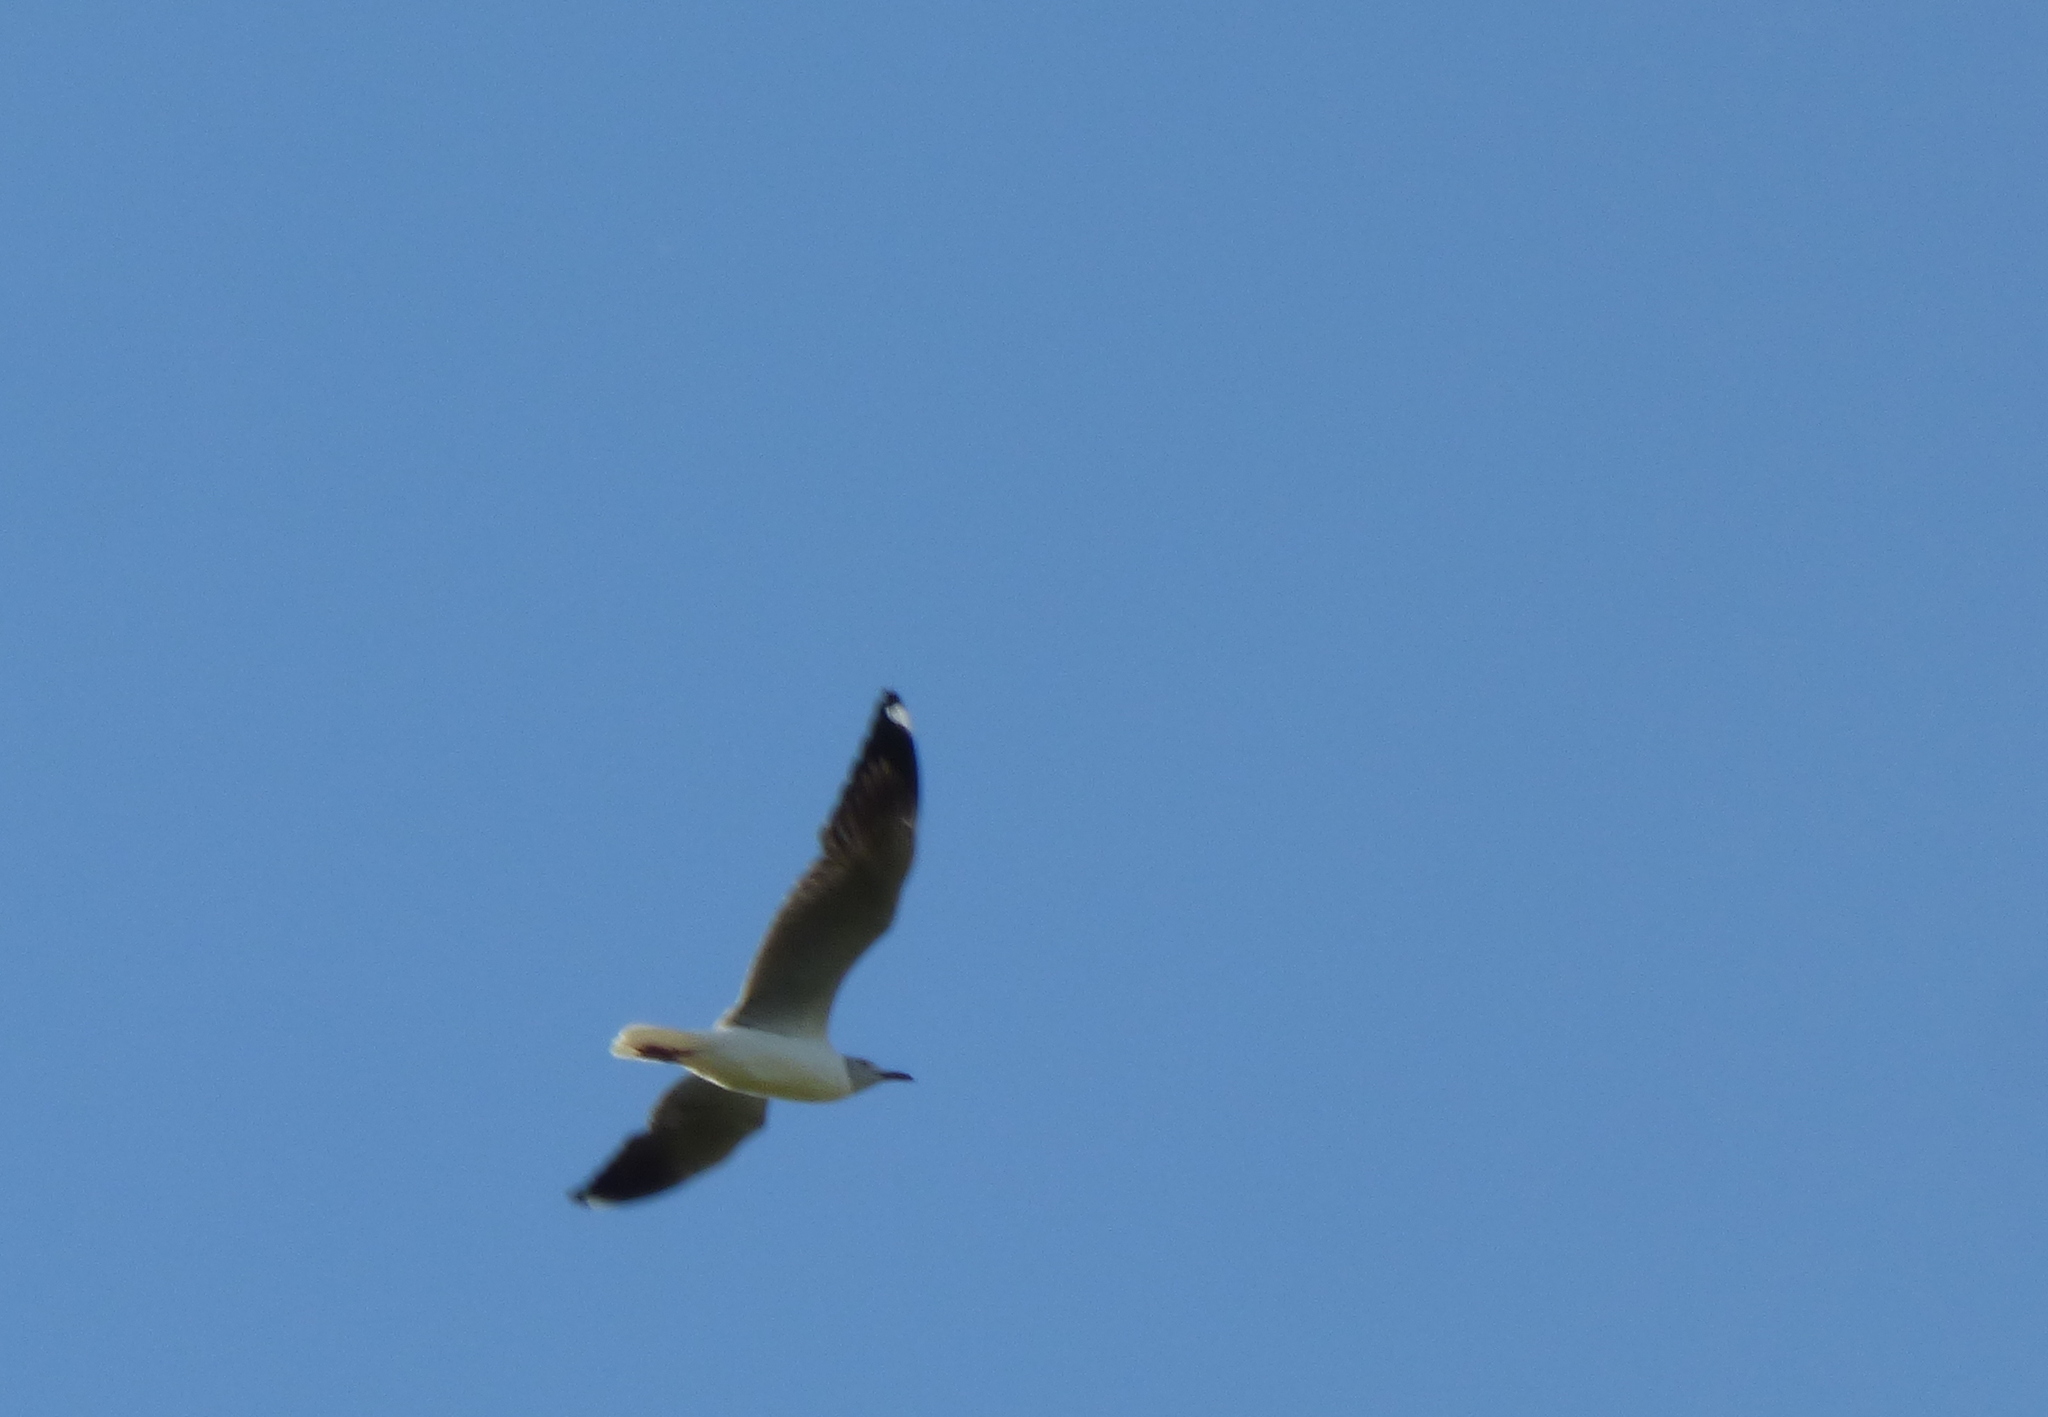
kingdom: Animalia
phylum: Chordata
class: Aves
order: Charadriiformes
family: Laridae
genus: Chroicocephalus
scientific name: Chroicocephalus cirrocephalus
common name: Grey-headed gull
